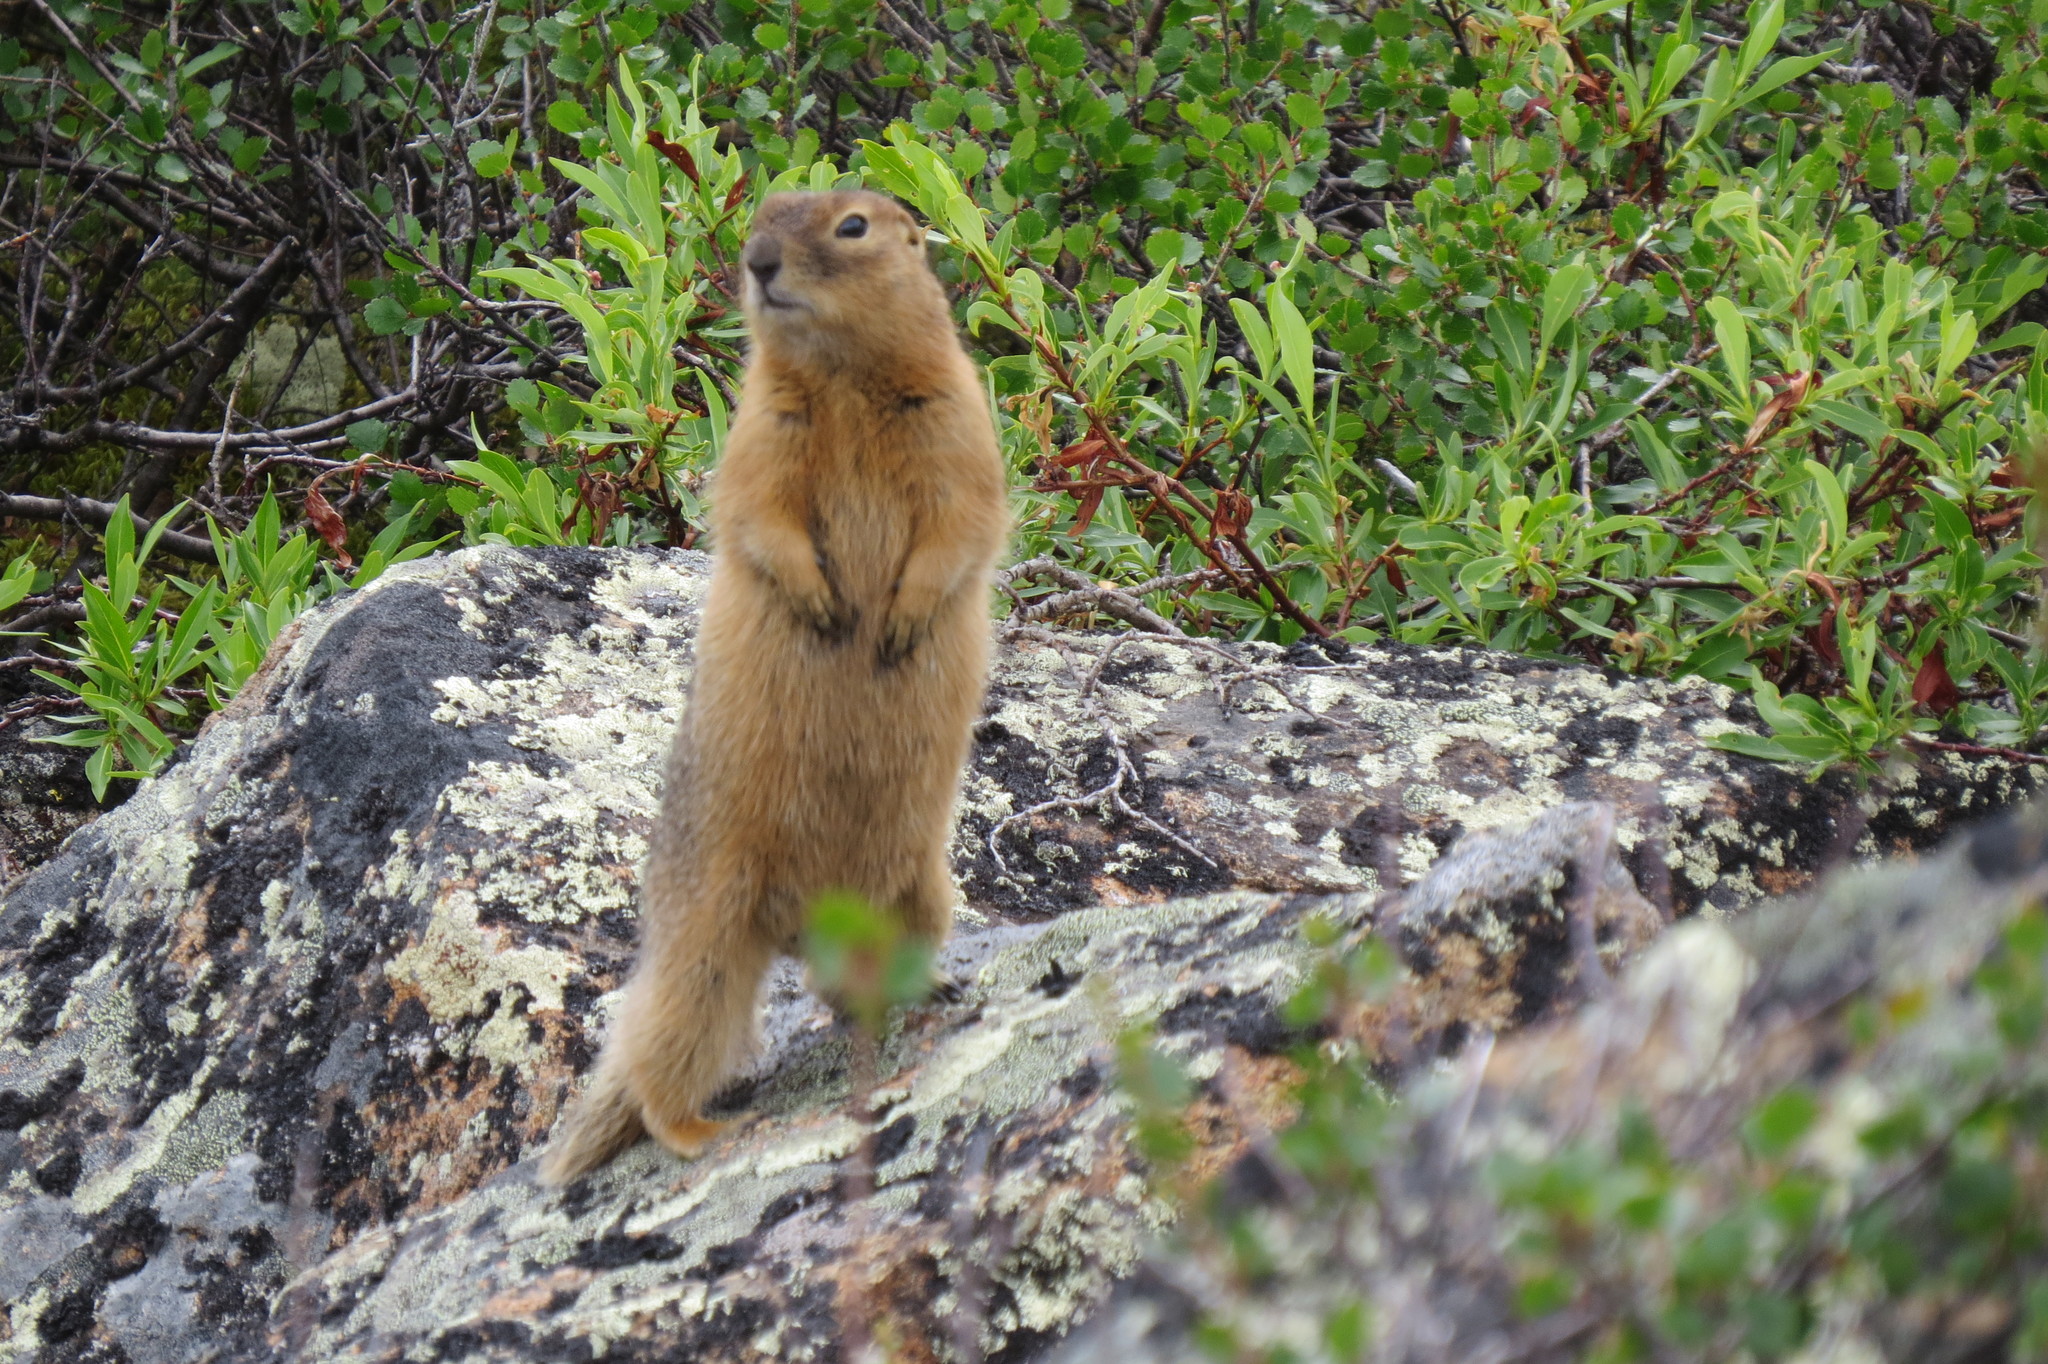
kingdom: Animalia
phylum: Chordata
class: Mammalia
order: Rodentia
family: Sciuridae
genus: Urocitellus
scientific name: Urocitellus parryii
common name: Arctic ground squirrel
